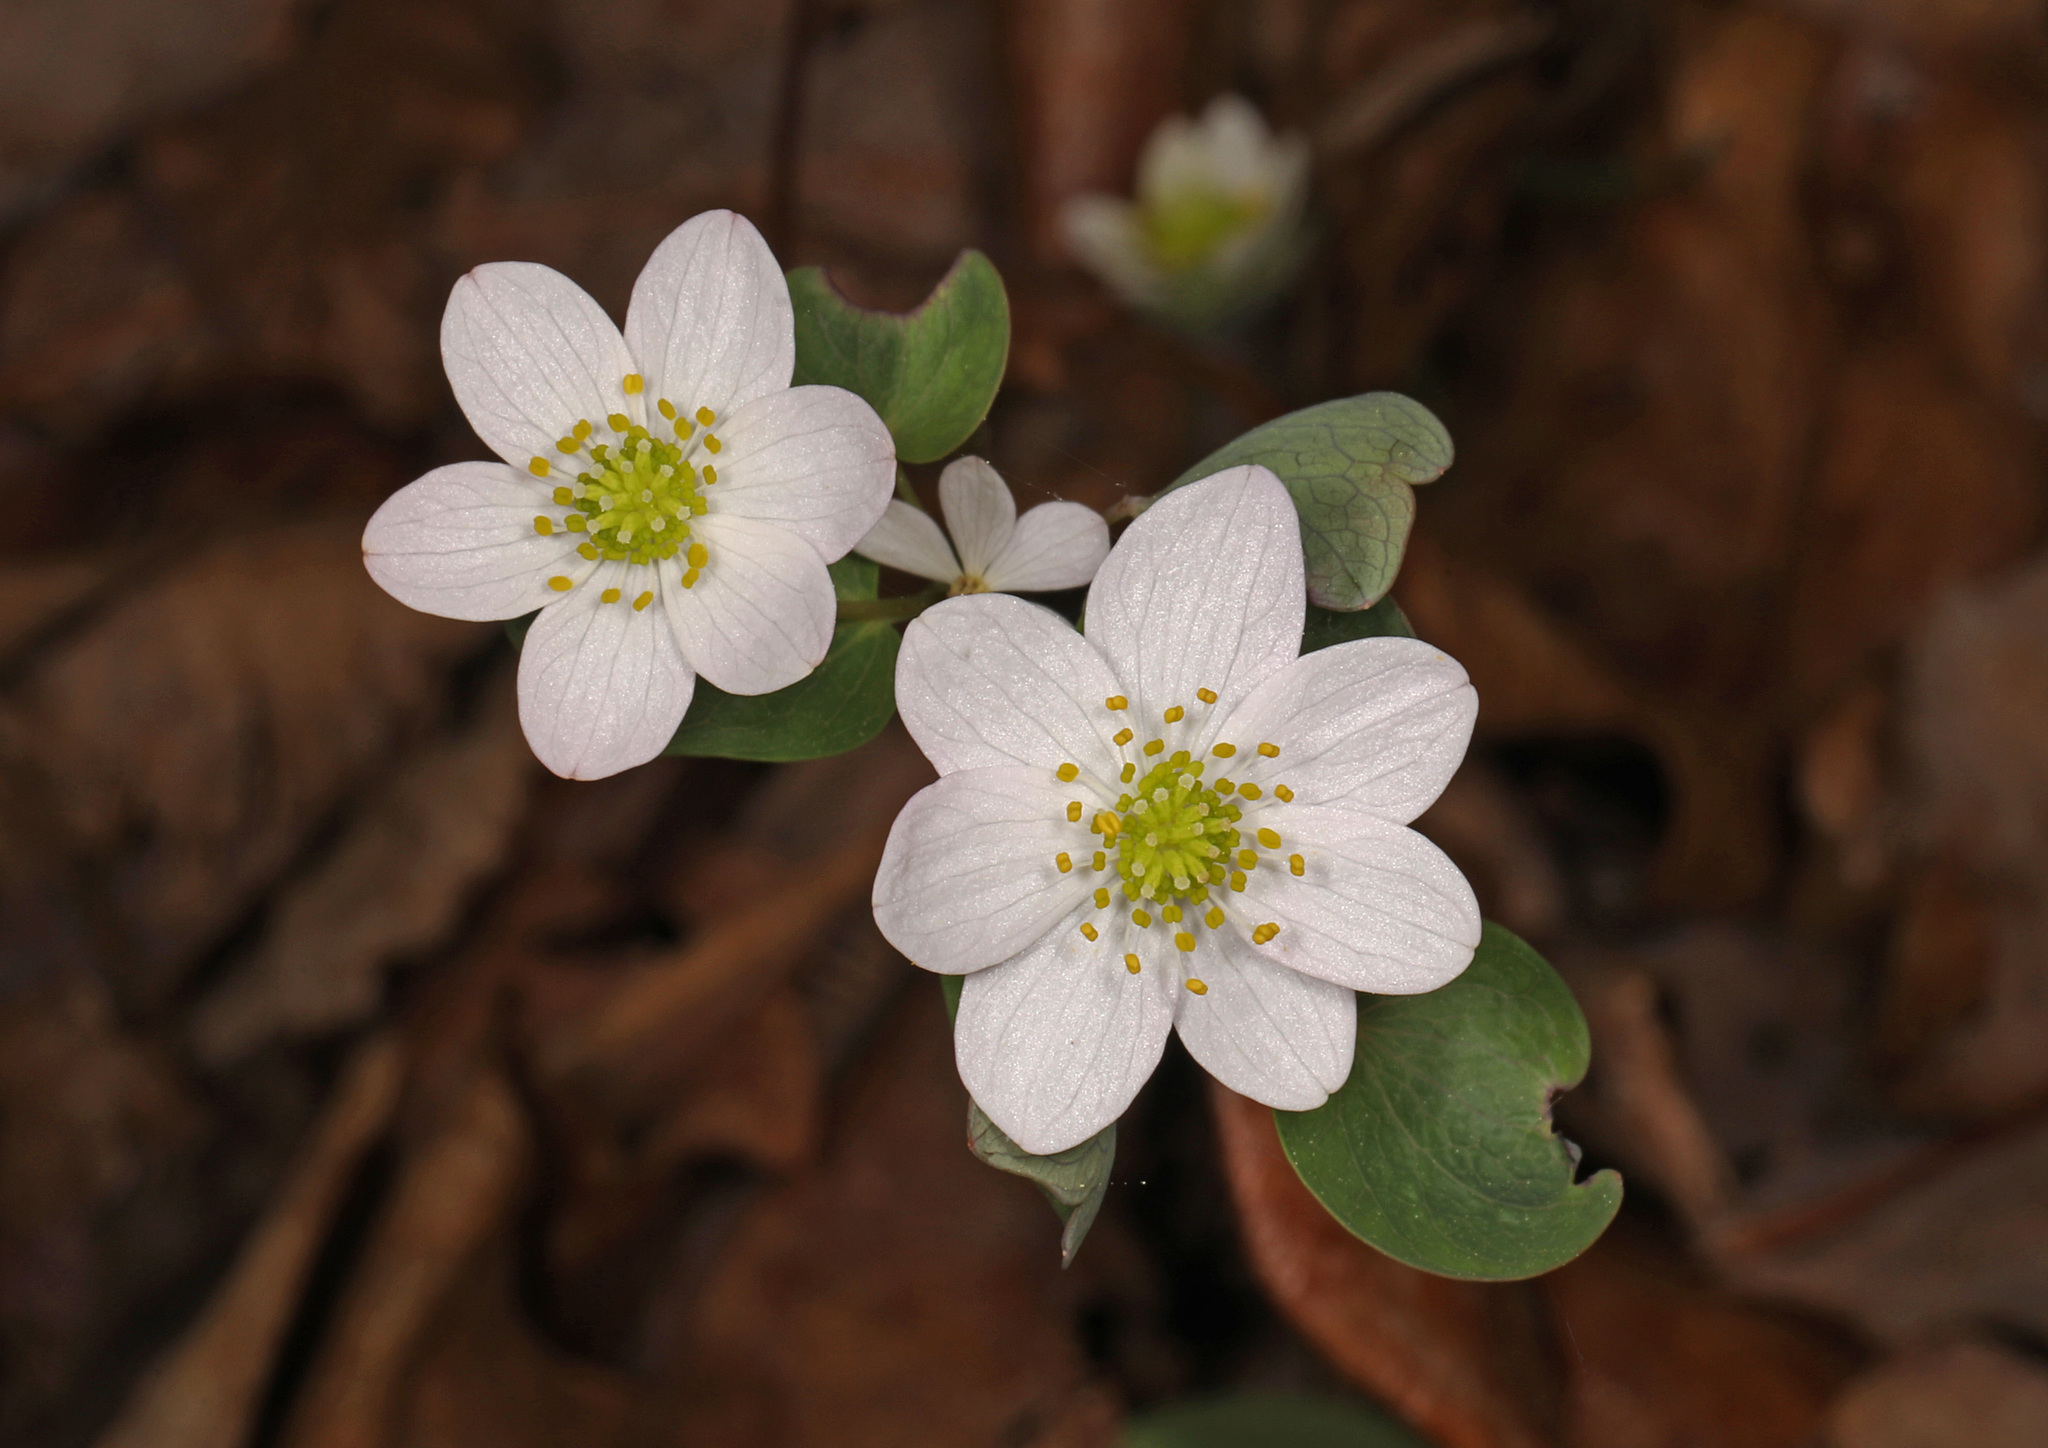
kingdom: Plantae
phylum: Tracheophyta
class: Magnoliopsida
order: Ranunculales
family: Ranunculaceae
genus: Thalictrum
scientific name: Thalictrum thalictroides
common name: Rue-anemone
